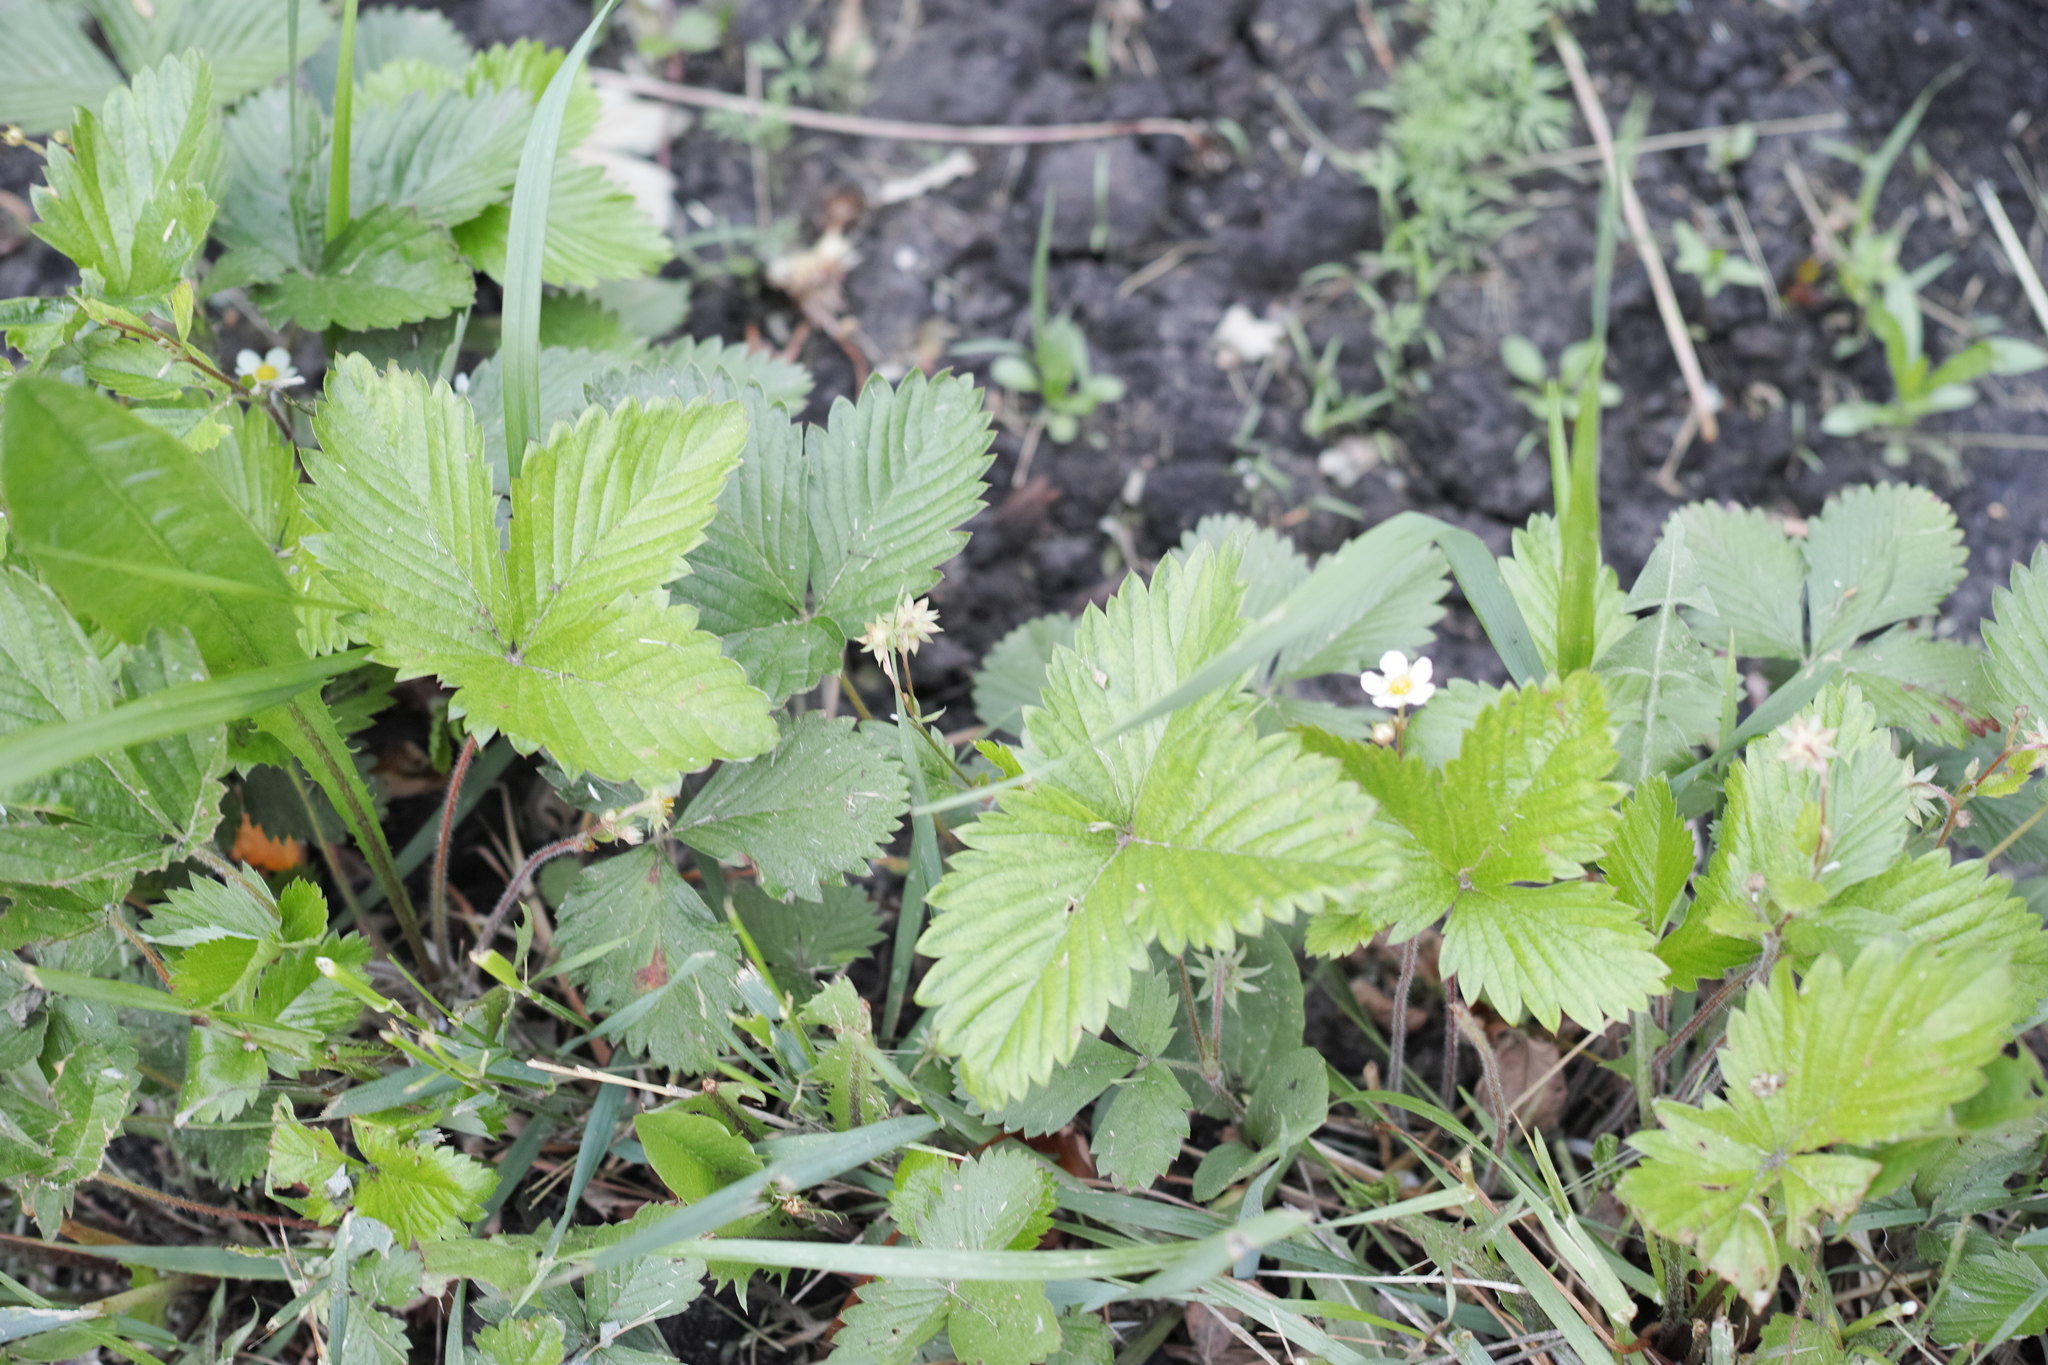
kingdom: Plantae
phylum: Tracheophyta
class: Magnoliopsida
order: Rosales
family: Rosaceae
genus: Fragaria
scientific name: Fragaria vesca
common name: Wild strawberry
